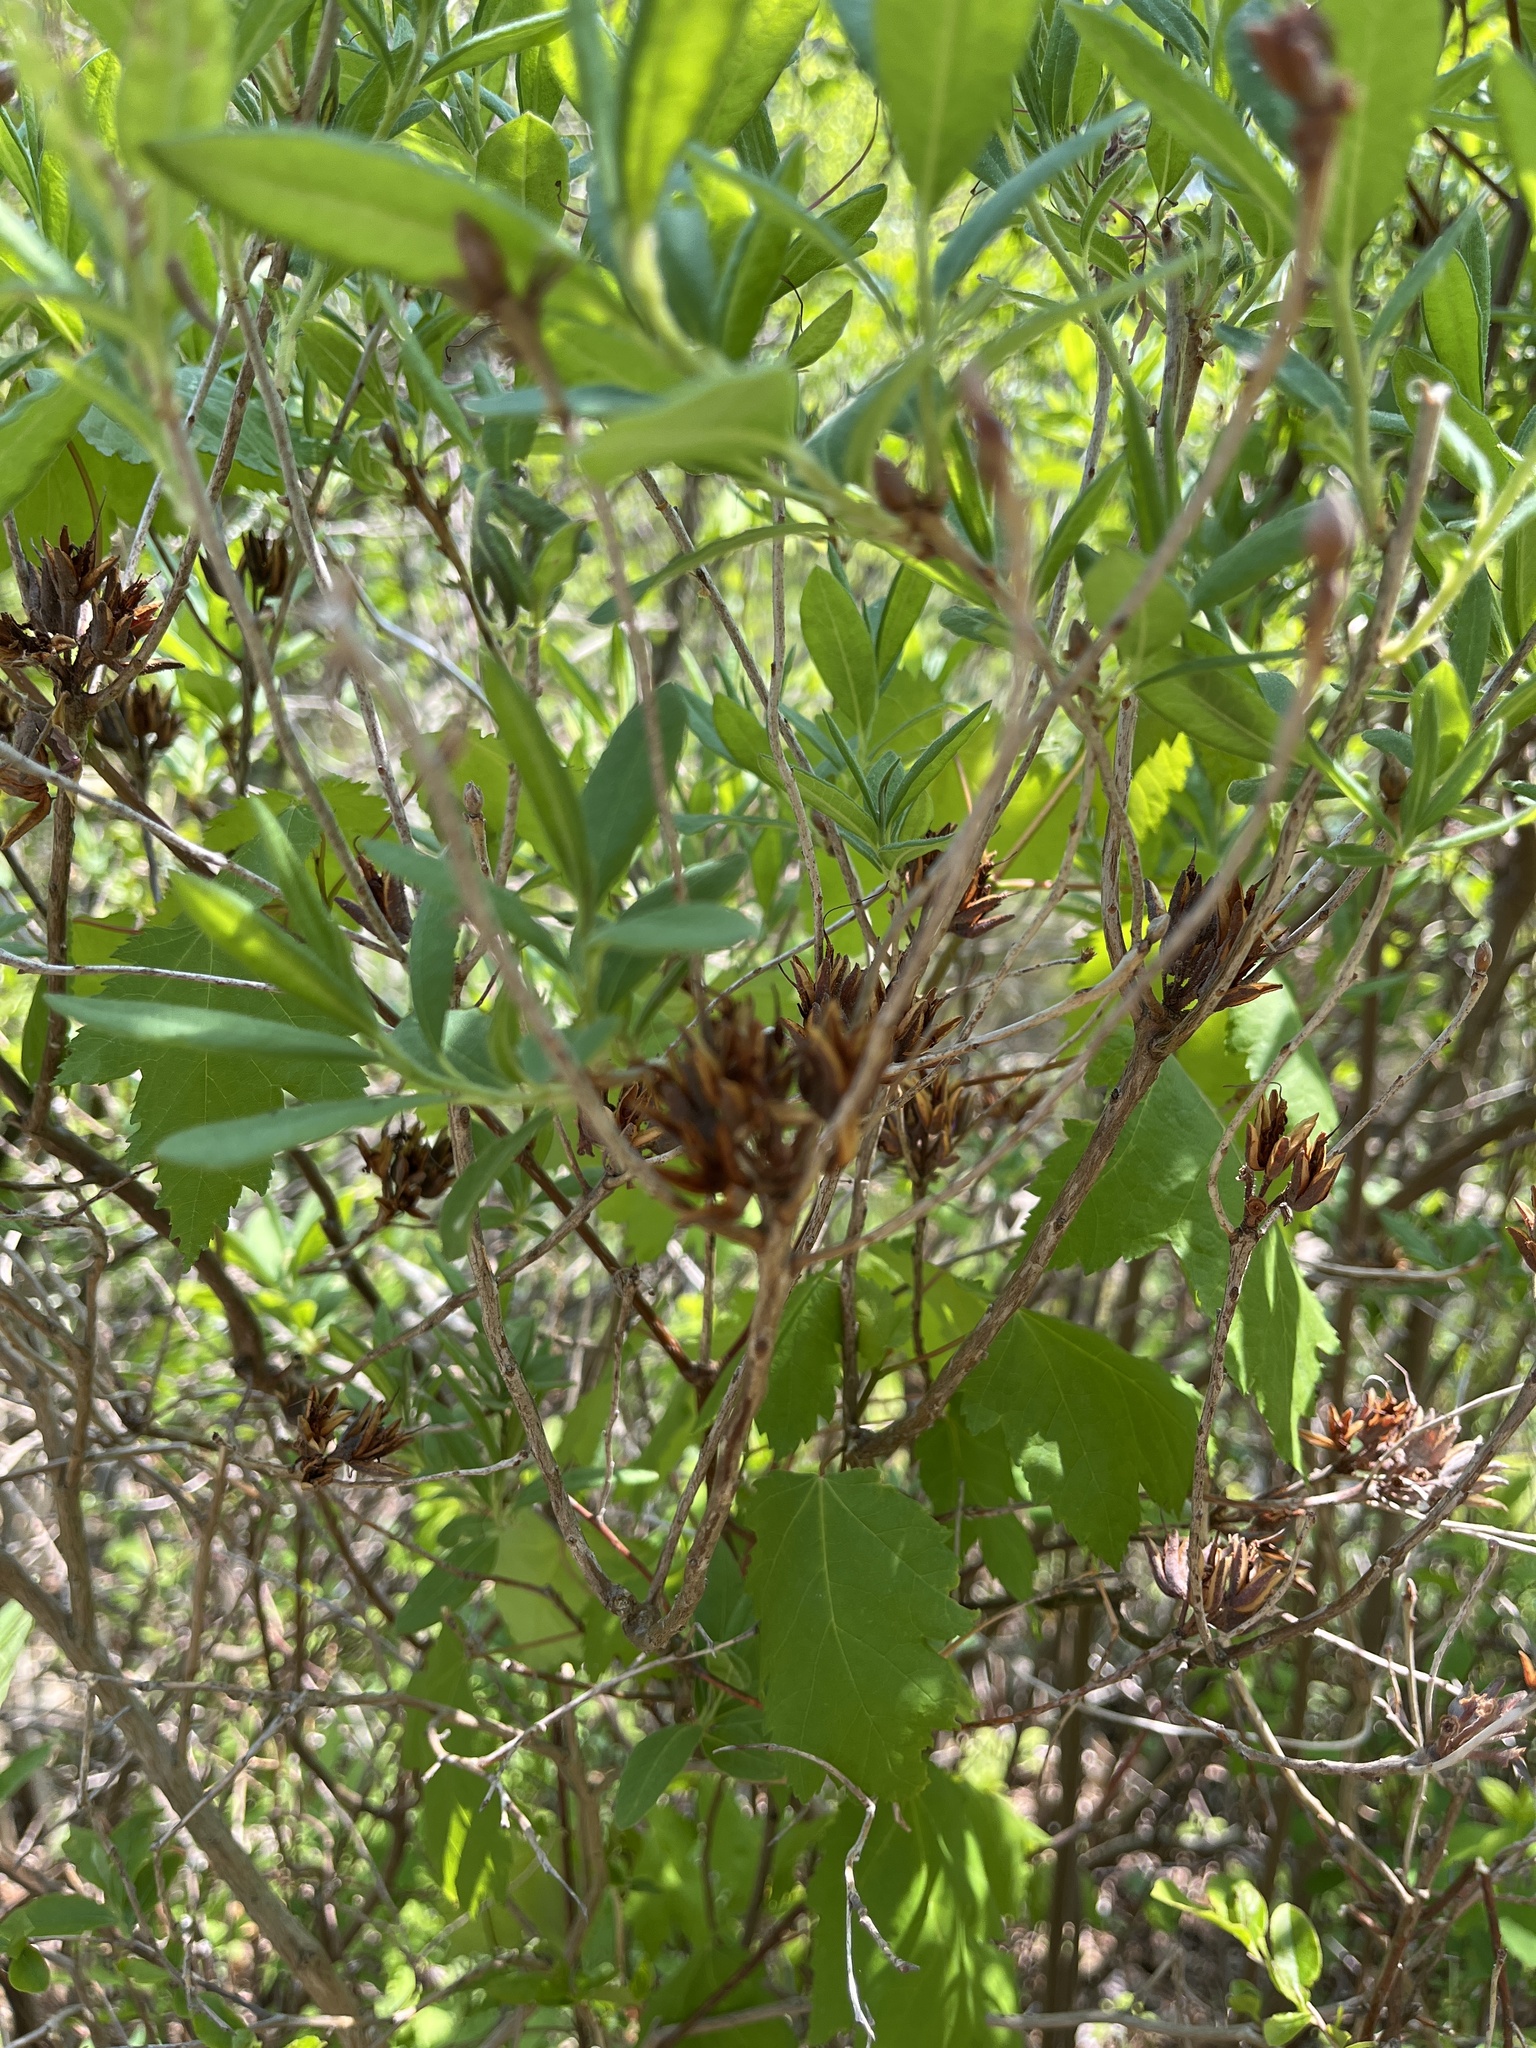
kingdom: Plantae
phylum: Tracheophyta
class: Magnoliopsida
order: Ericales
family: Ericaceae
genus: Rhododendron
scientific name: Rhododendron canadense
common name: Rhodora
